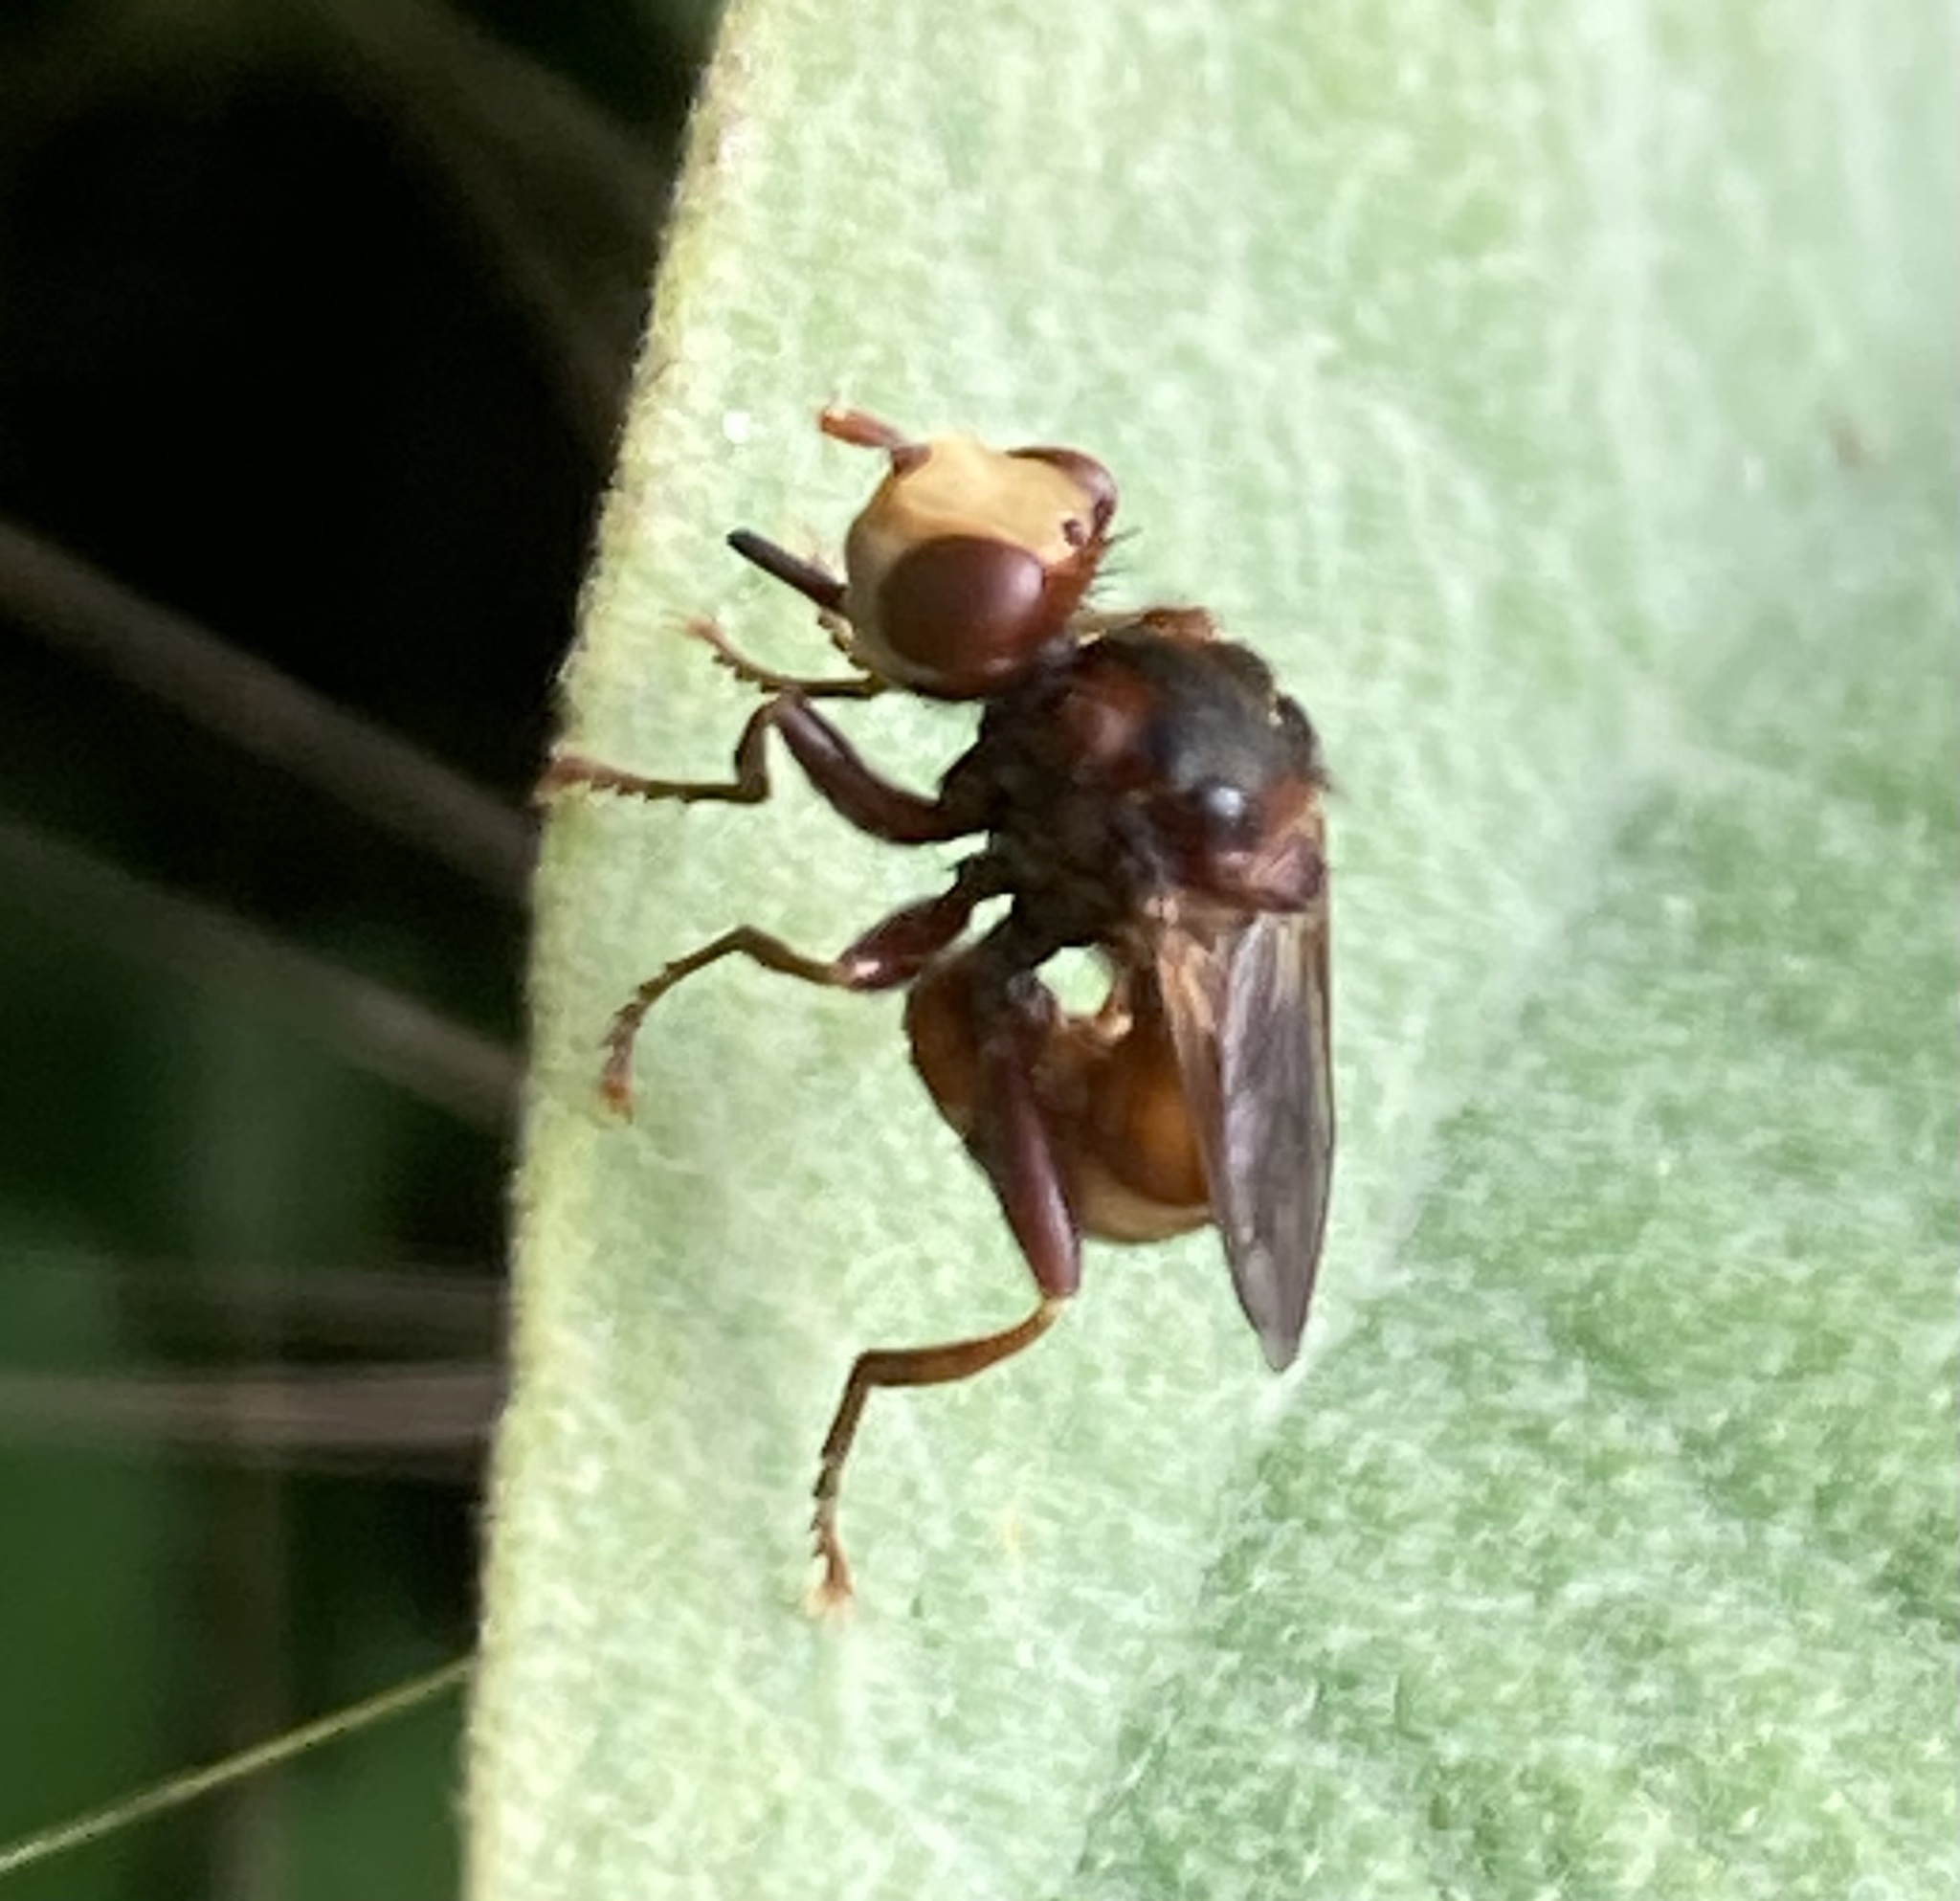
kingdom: Animalia
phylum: Arthropoda
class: Insecta
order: Diptera
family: Conopidae
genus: Sicus
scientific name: Sicus ferrugineus
